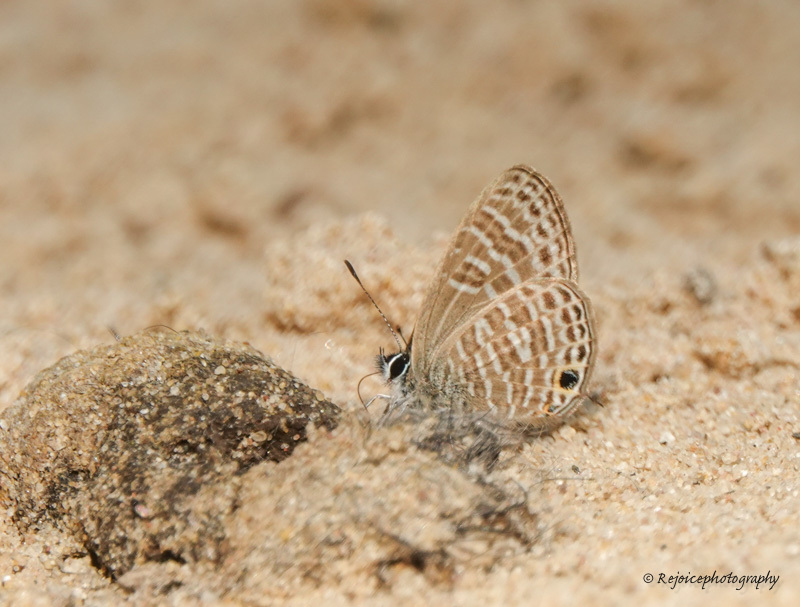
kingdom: Animalia
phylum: Arthropoda
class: Insecta
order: Lepidoptera
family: Lycaenidae
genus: Nacaduba
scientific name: Nacaduba hermus
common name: Pale four-line blue
